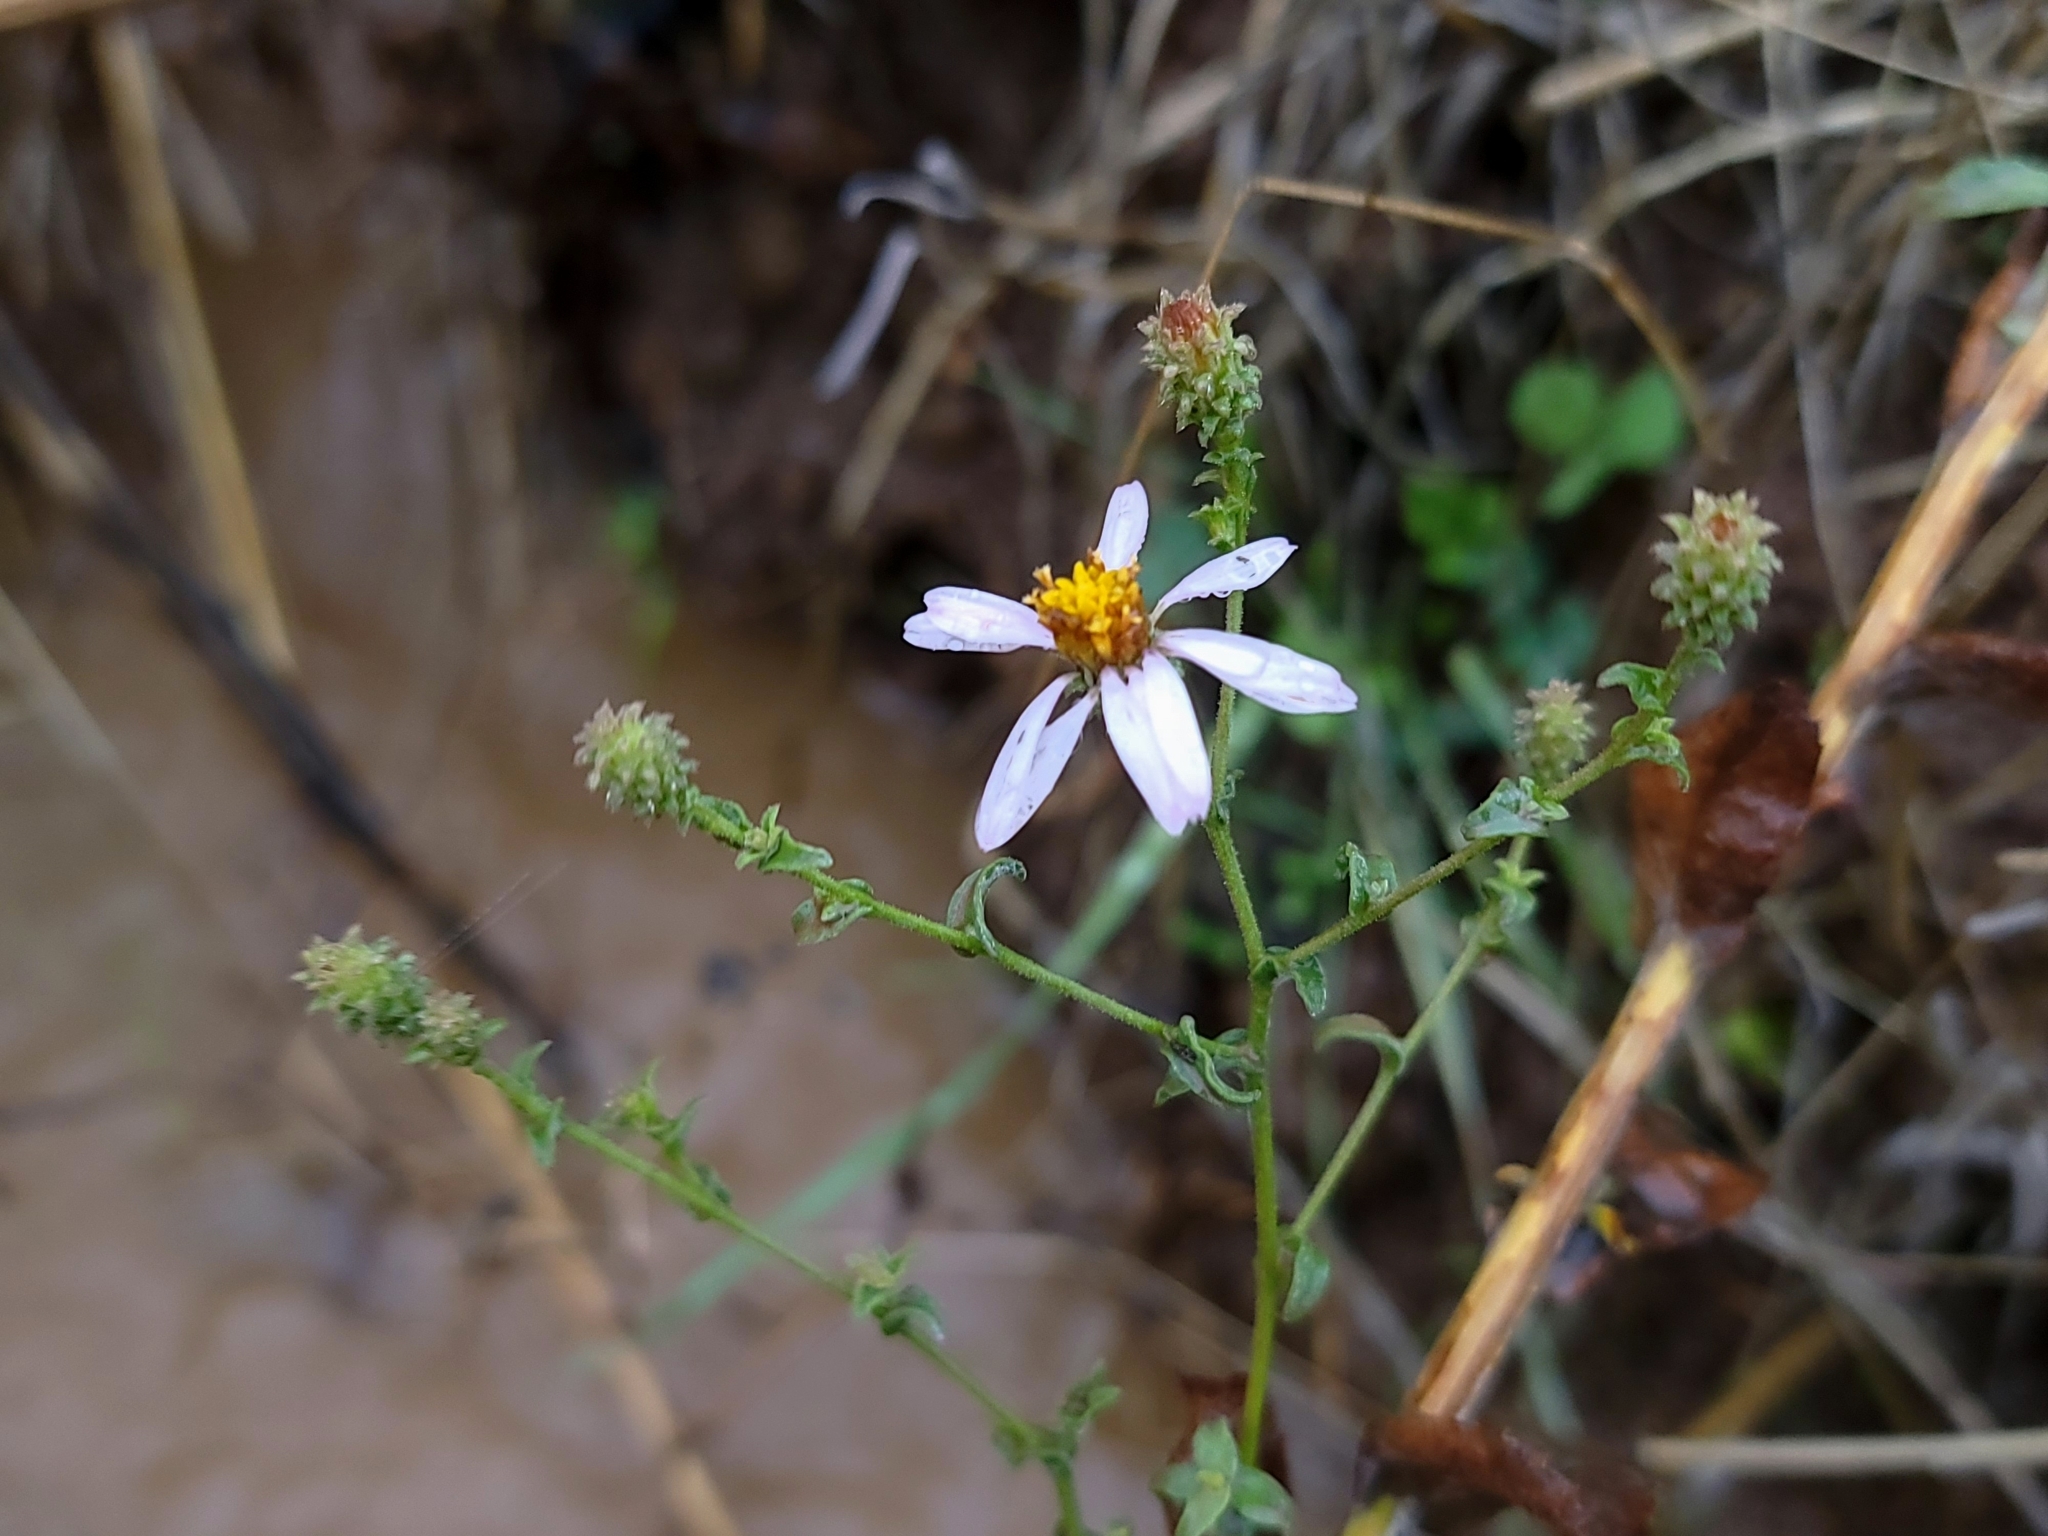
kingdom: Plantae
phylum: Tracheophyta
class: Magnoliopsida
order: Asterales
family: Asteraceae
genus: Corethrogyne
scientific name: Corethrogyne filaginifolia
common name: Sand-aster
